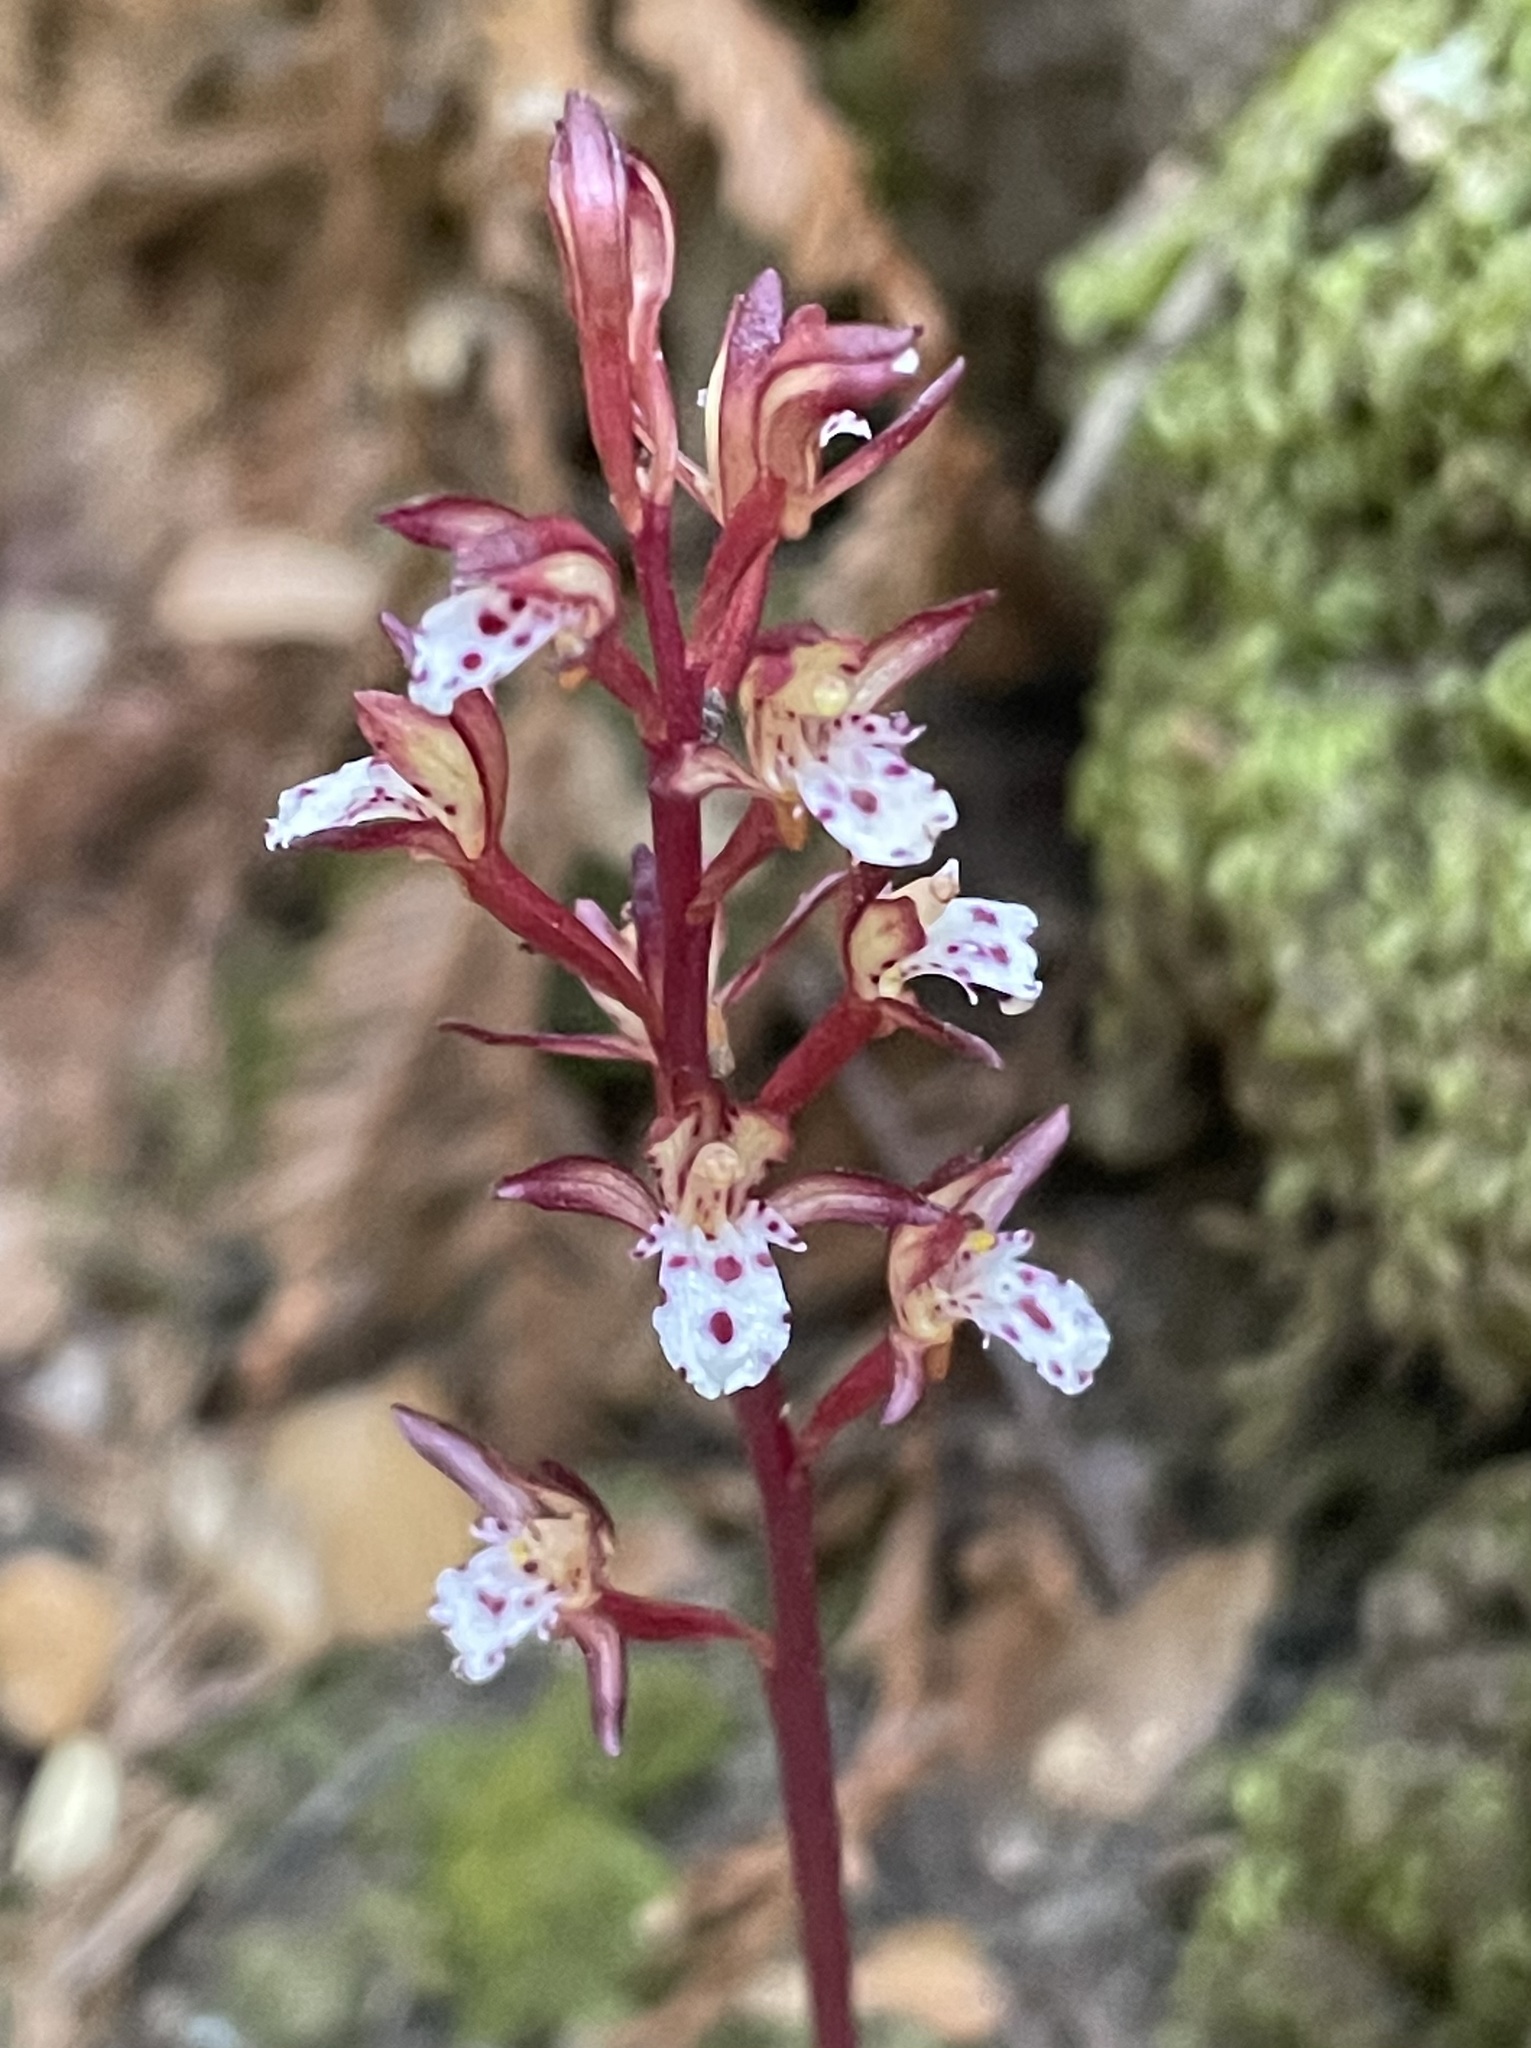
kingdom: Plantae
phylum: Tracheophyta
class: Liliopsida
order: Asparagales
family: Orchidaceae
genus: Corallorhiza
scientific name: Corallorhiza maculata
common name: Spotted coralroot
